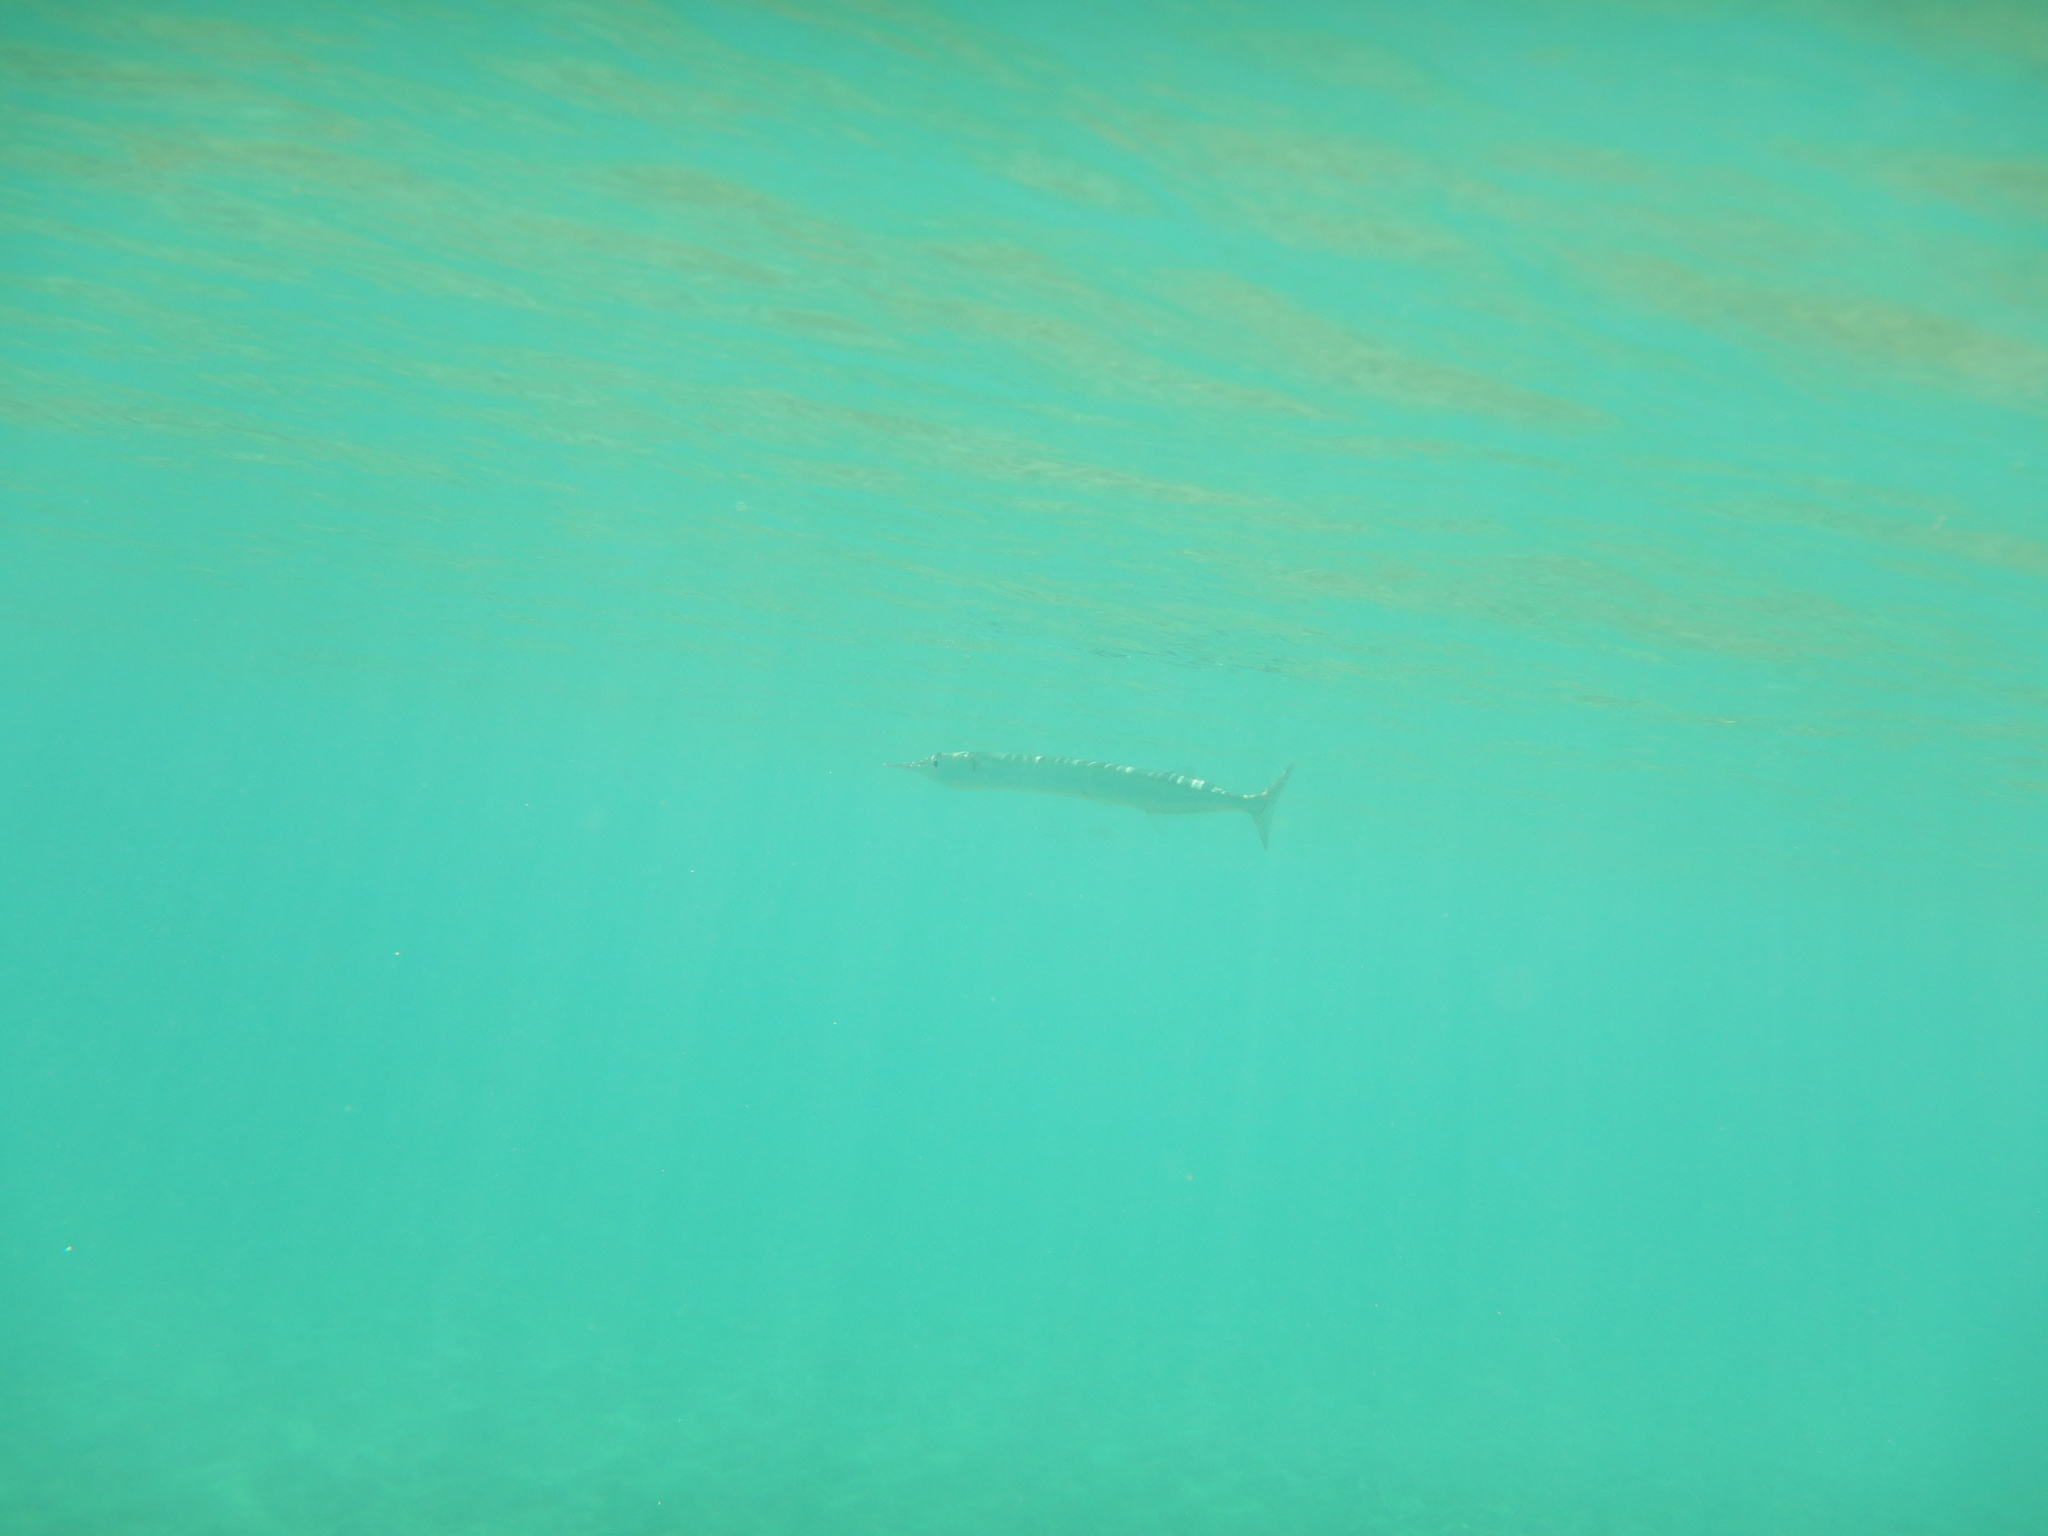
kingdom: Animalia
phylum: Chordata
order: Beloniformes
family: Belonidae
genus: Belone
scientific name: Belone belone
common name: Garfish
